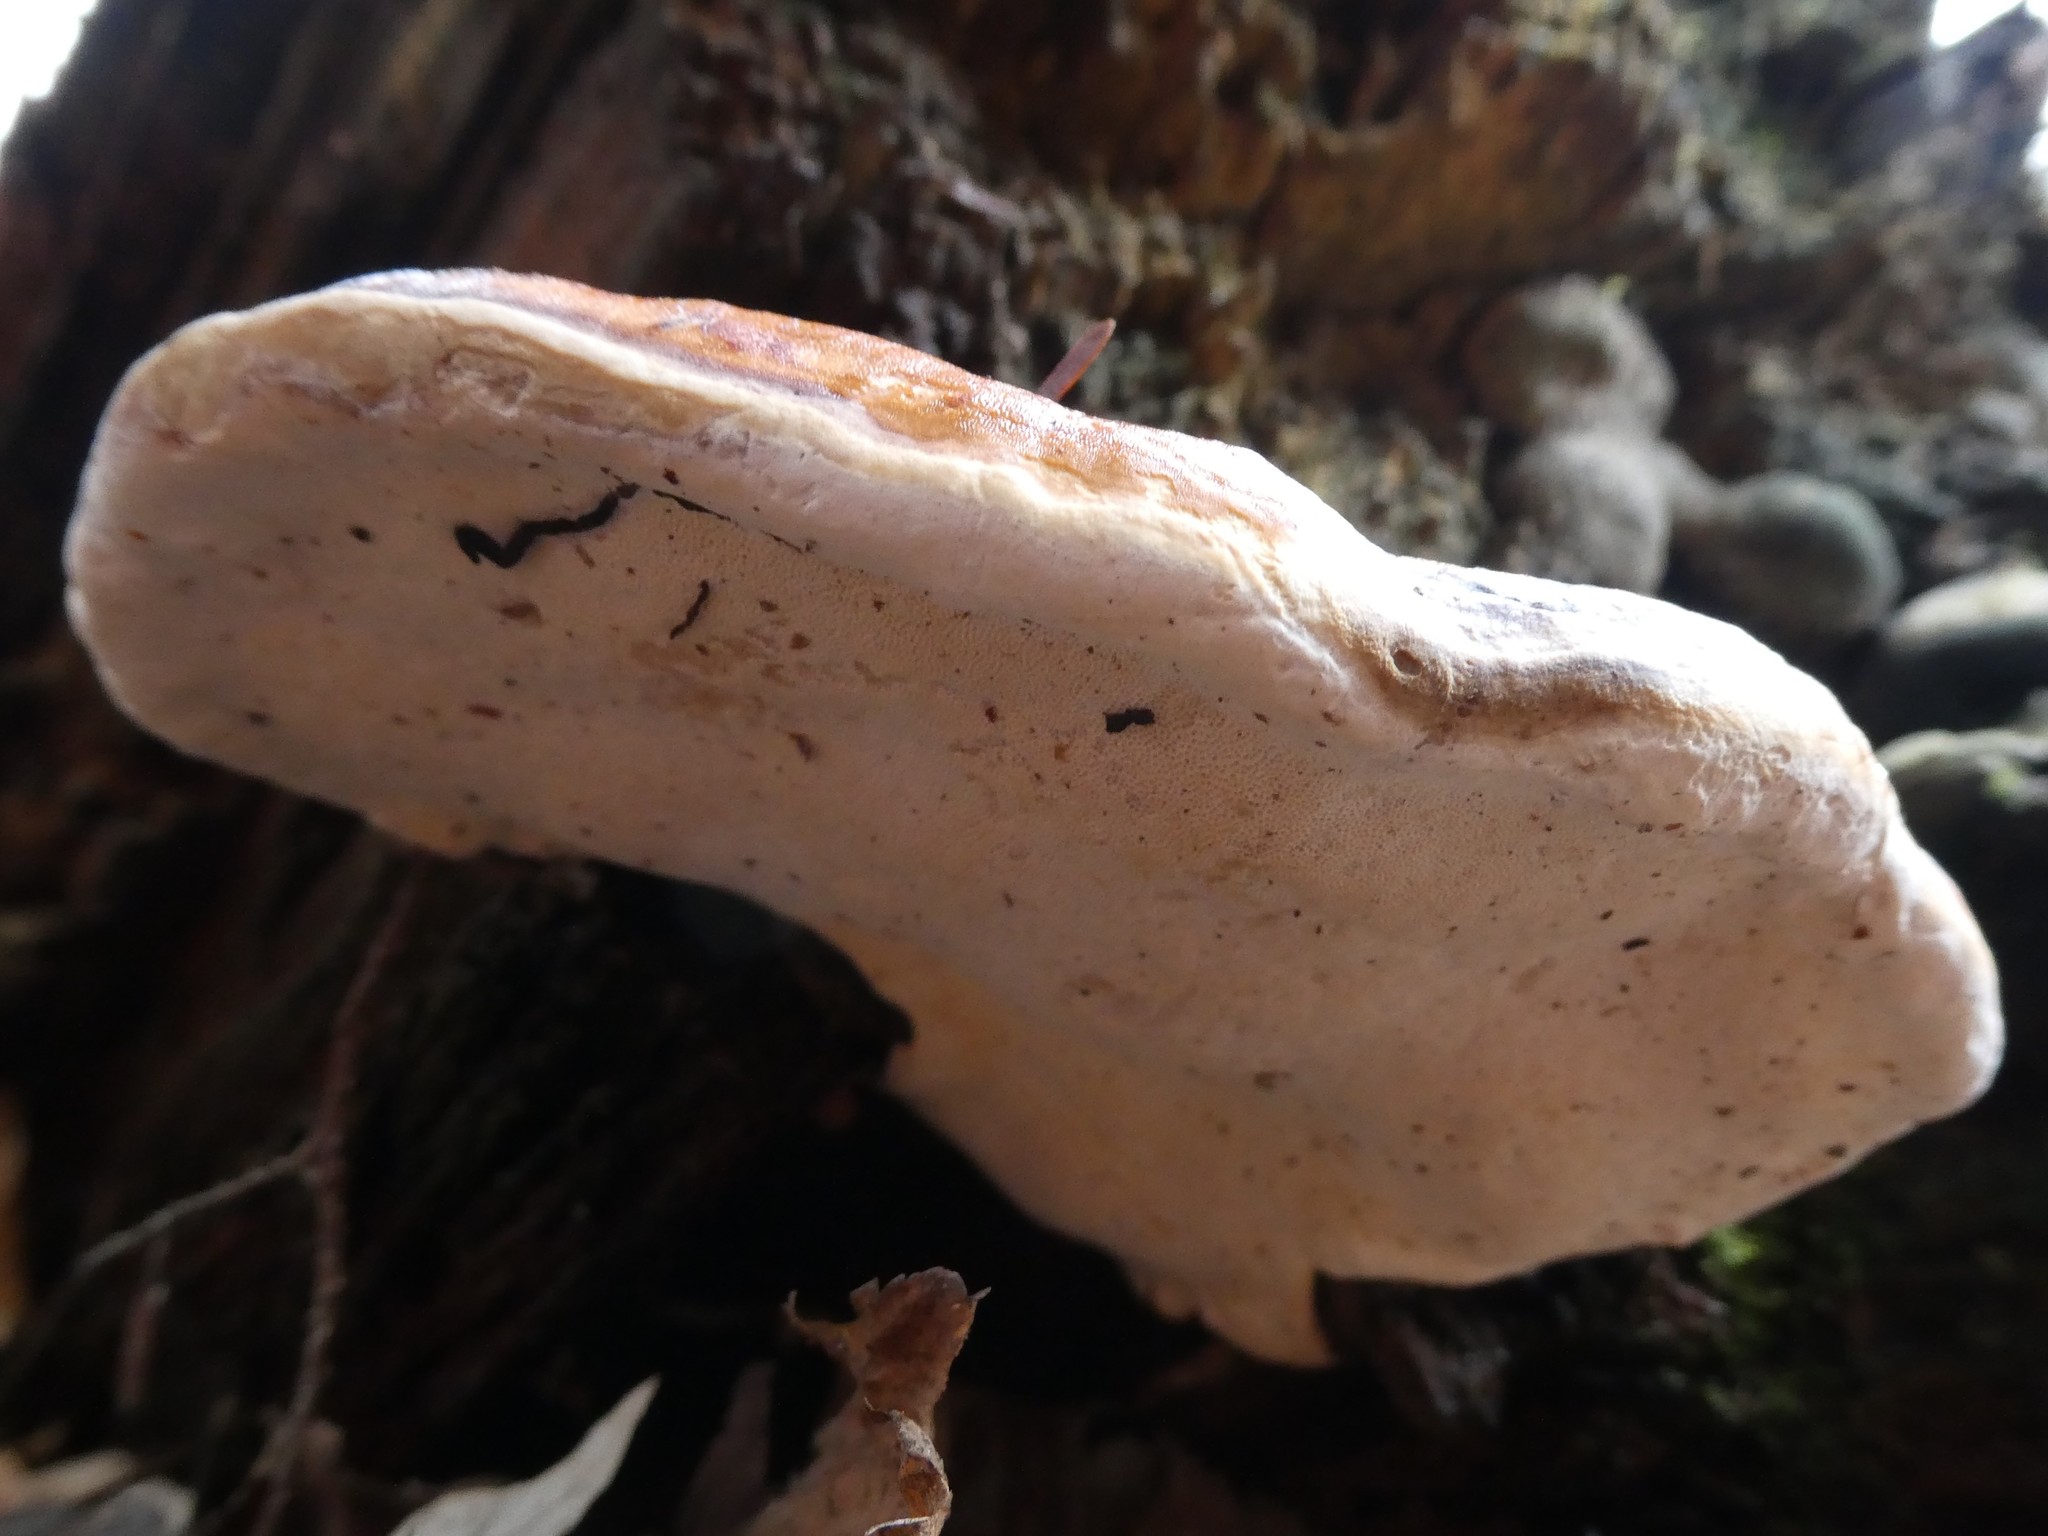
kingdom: Fungi
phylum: Basidiomycota
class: Agaricomycetes
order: Polyporales
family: Fomitopsidaceae
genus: Fomitopsis
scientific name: Fomitopsis mounceae
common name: Northern red belt
